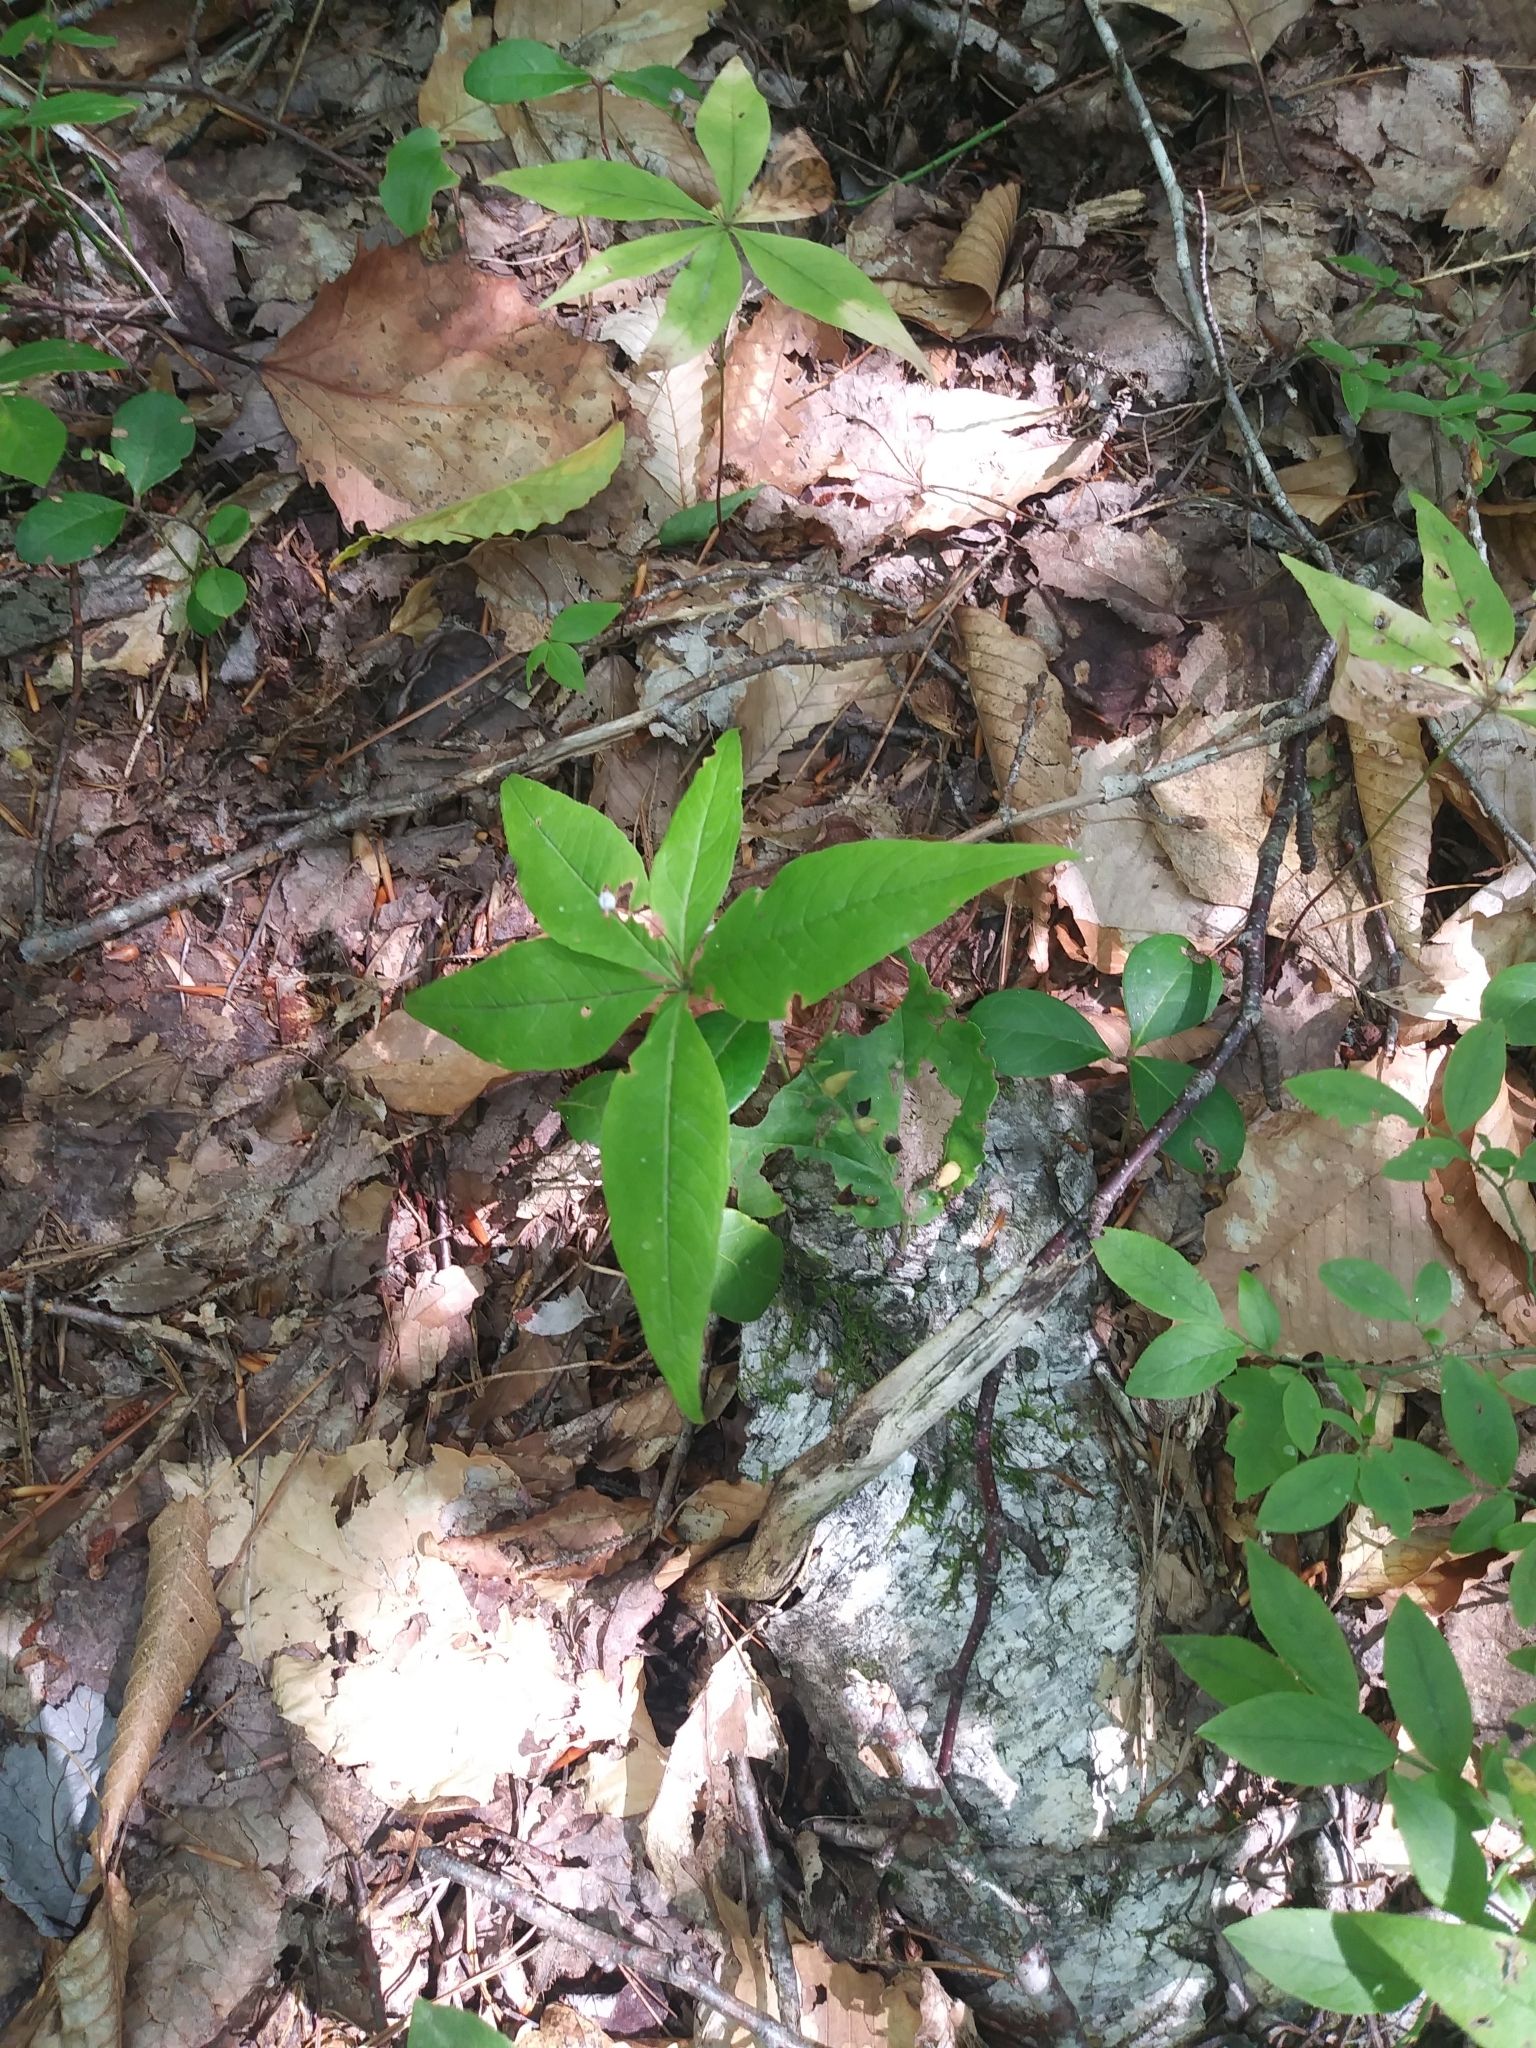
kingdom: Plantae
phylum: Tracheophyta
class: Magnoliopsida
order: Ericales
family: Primulaceae
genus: Lysimachia
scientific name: Lysimachia borealis
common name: American starflower
